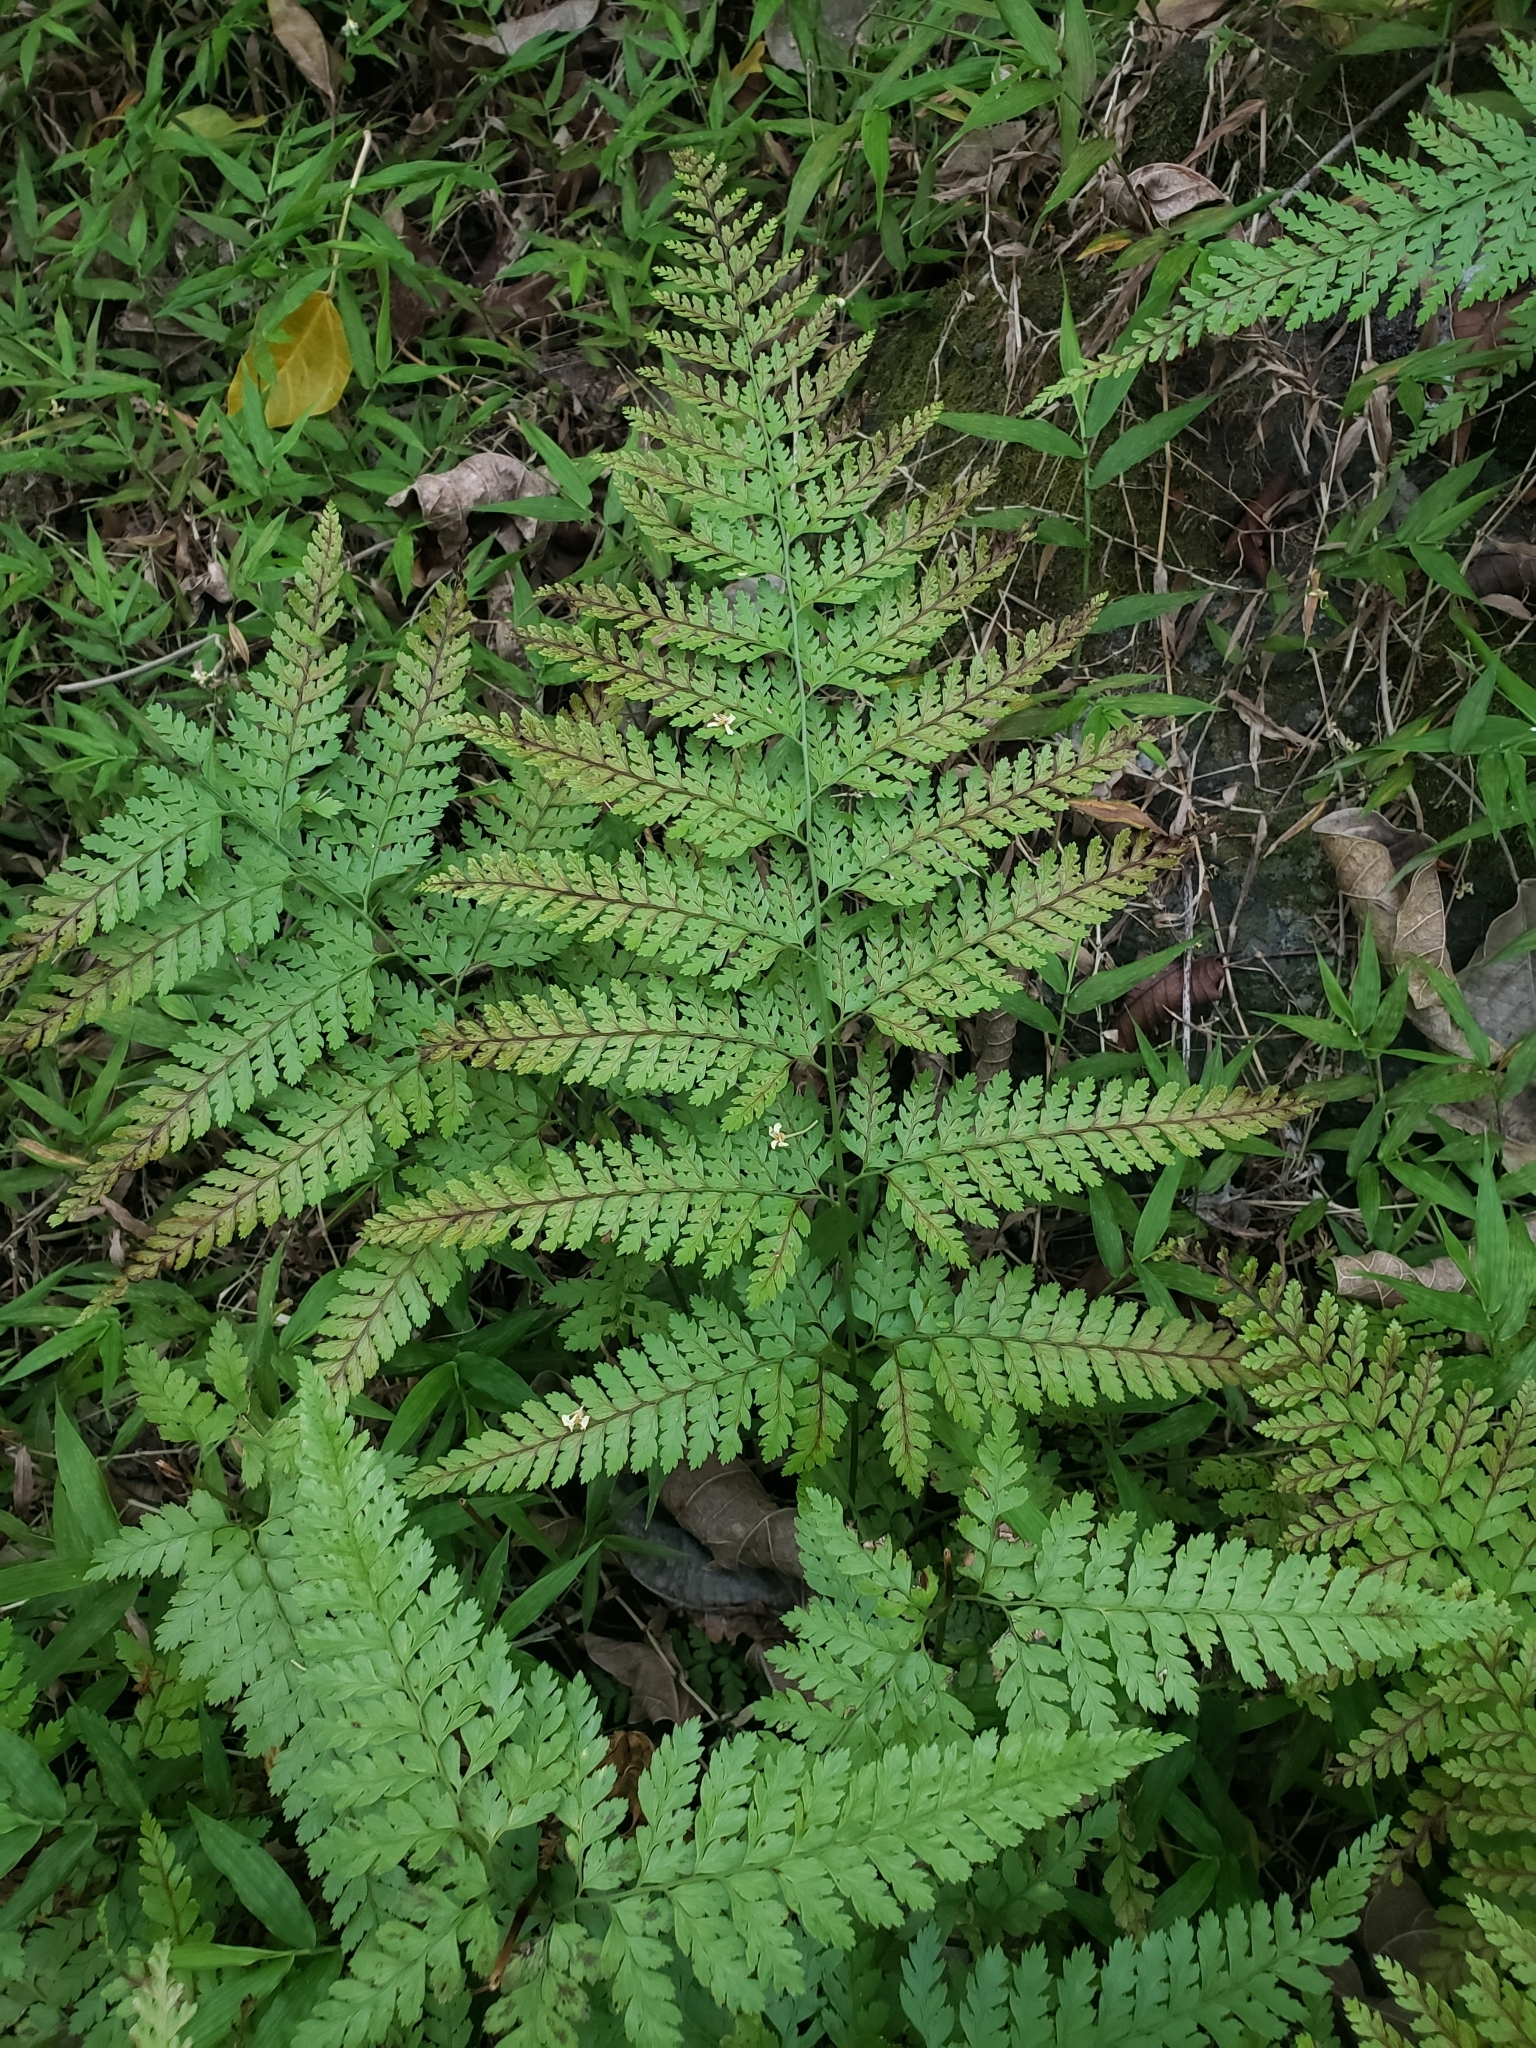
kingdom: Plantae
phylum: Tracheophyta
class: Polypodiopsida
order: Polypodiales
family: Dennstaedtiaceae
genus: Microlepia
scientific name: Microlepia setosa
